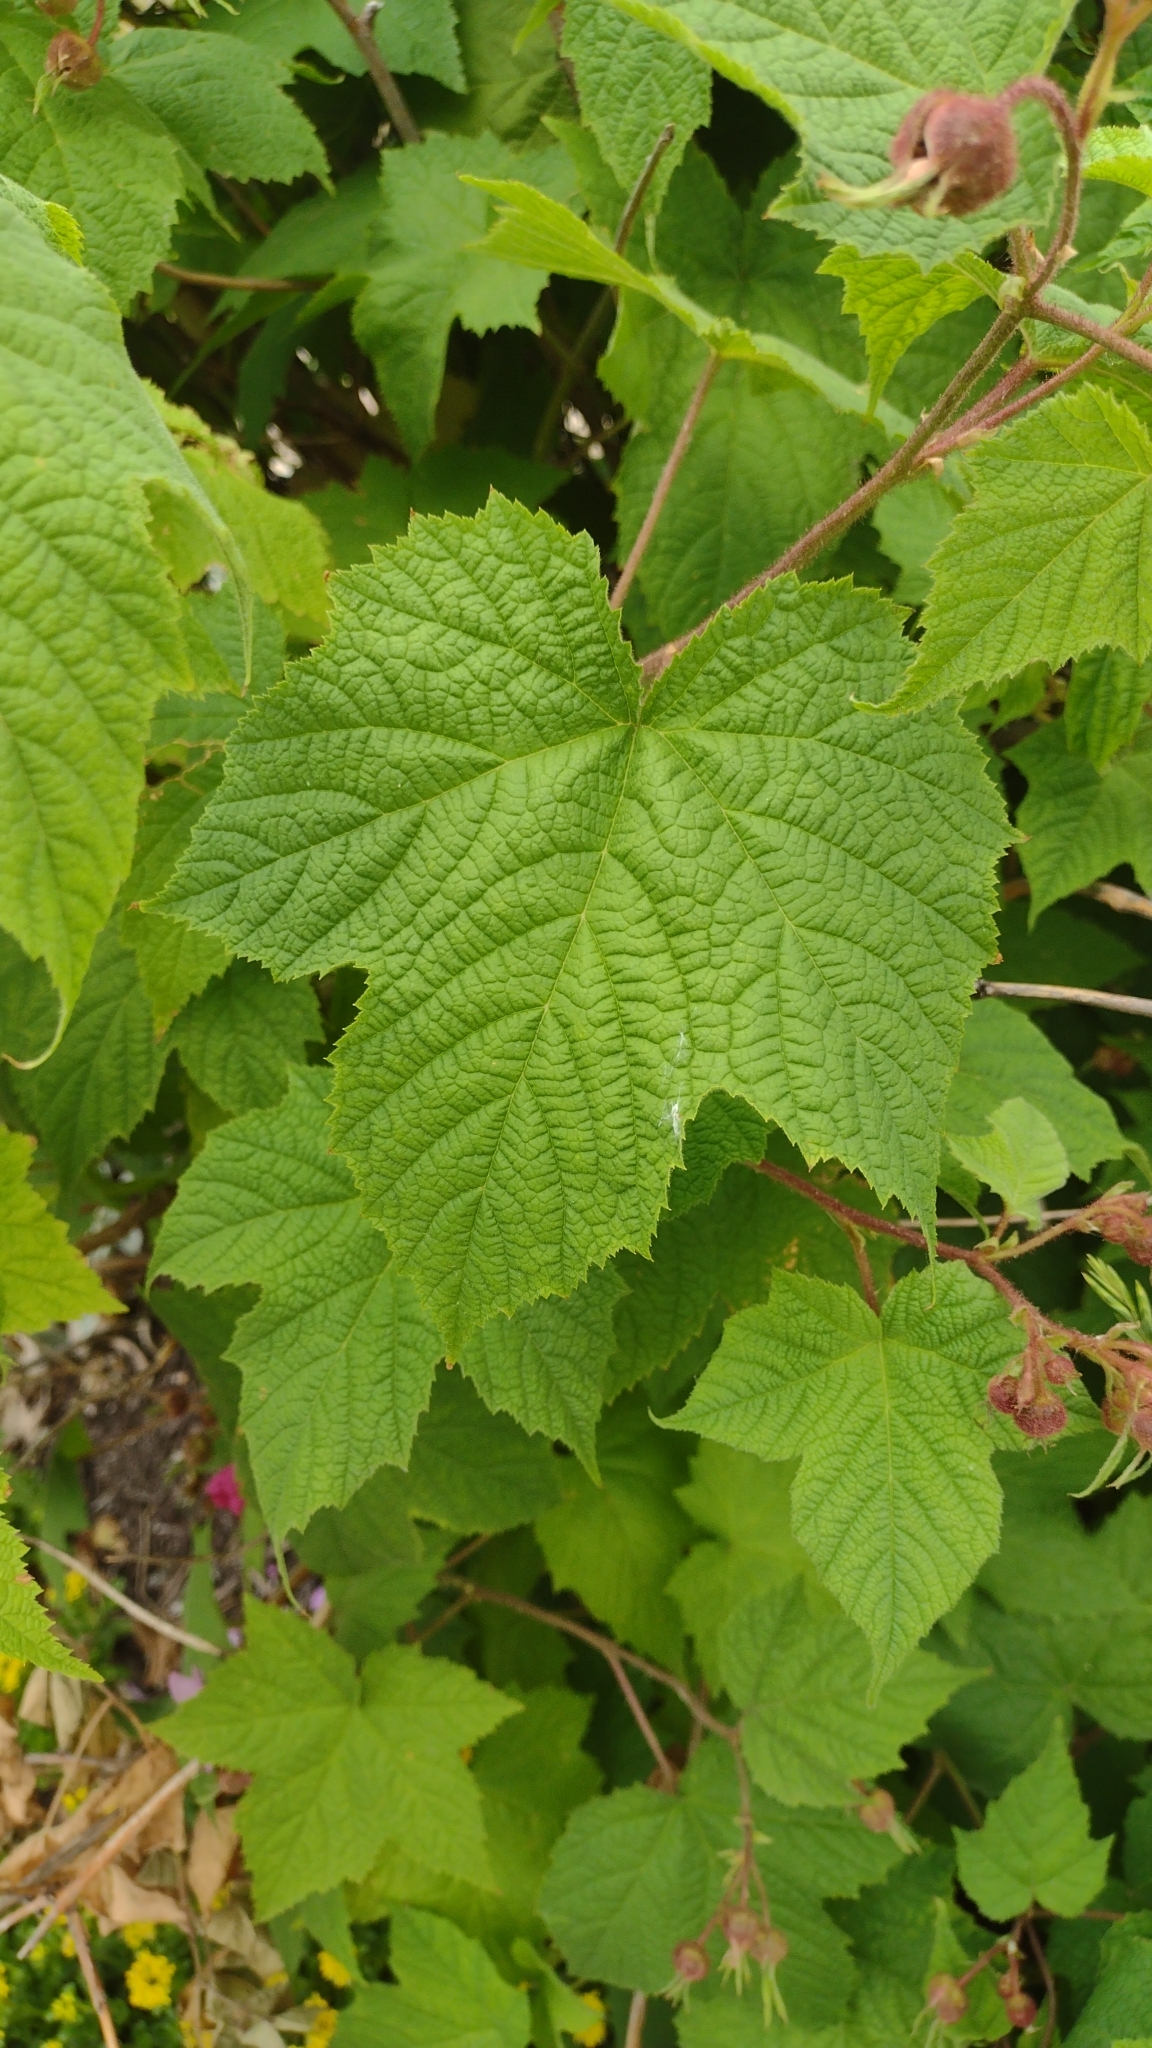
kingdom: Plantae
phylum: Tracheophyta
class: Magnoliopsida
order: Rosales
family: Rosaceae
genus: Rubus
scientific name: Rubus odoratus
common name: Purple-flowered raspberry
